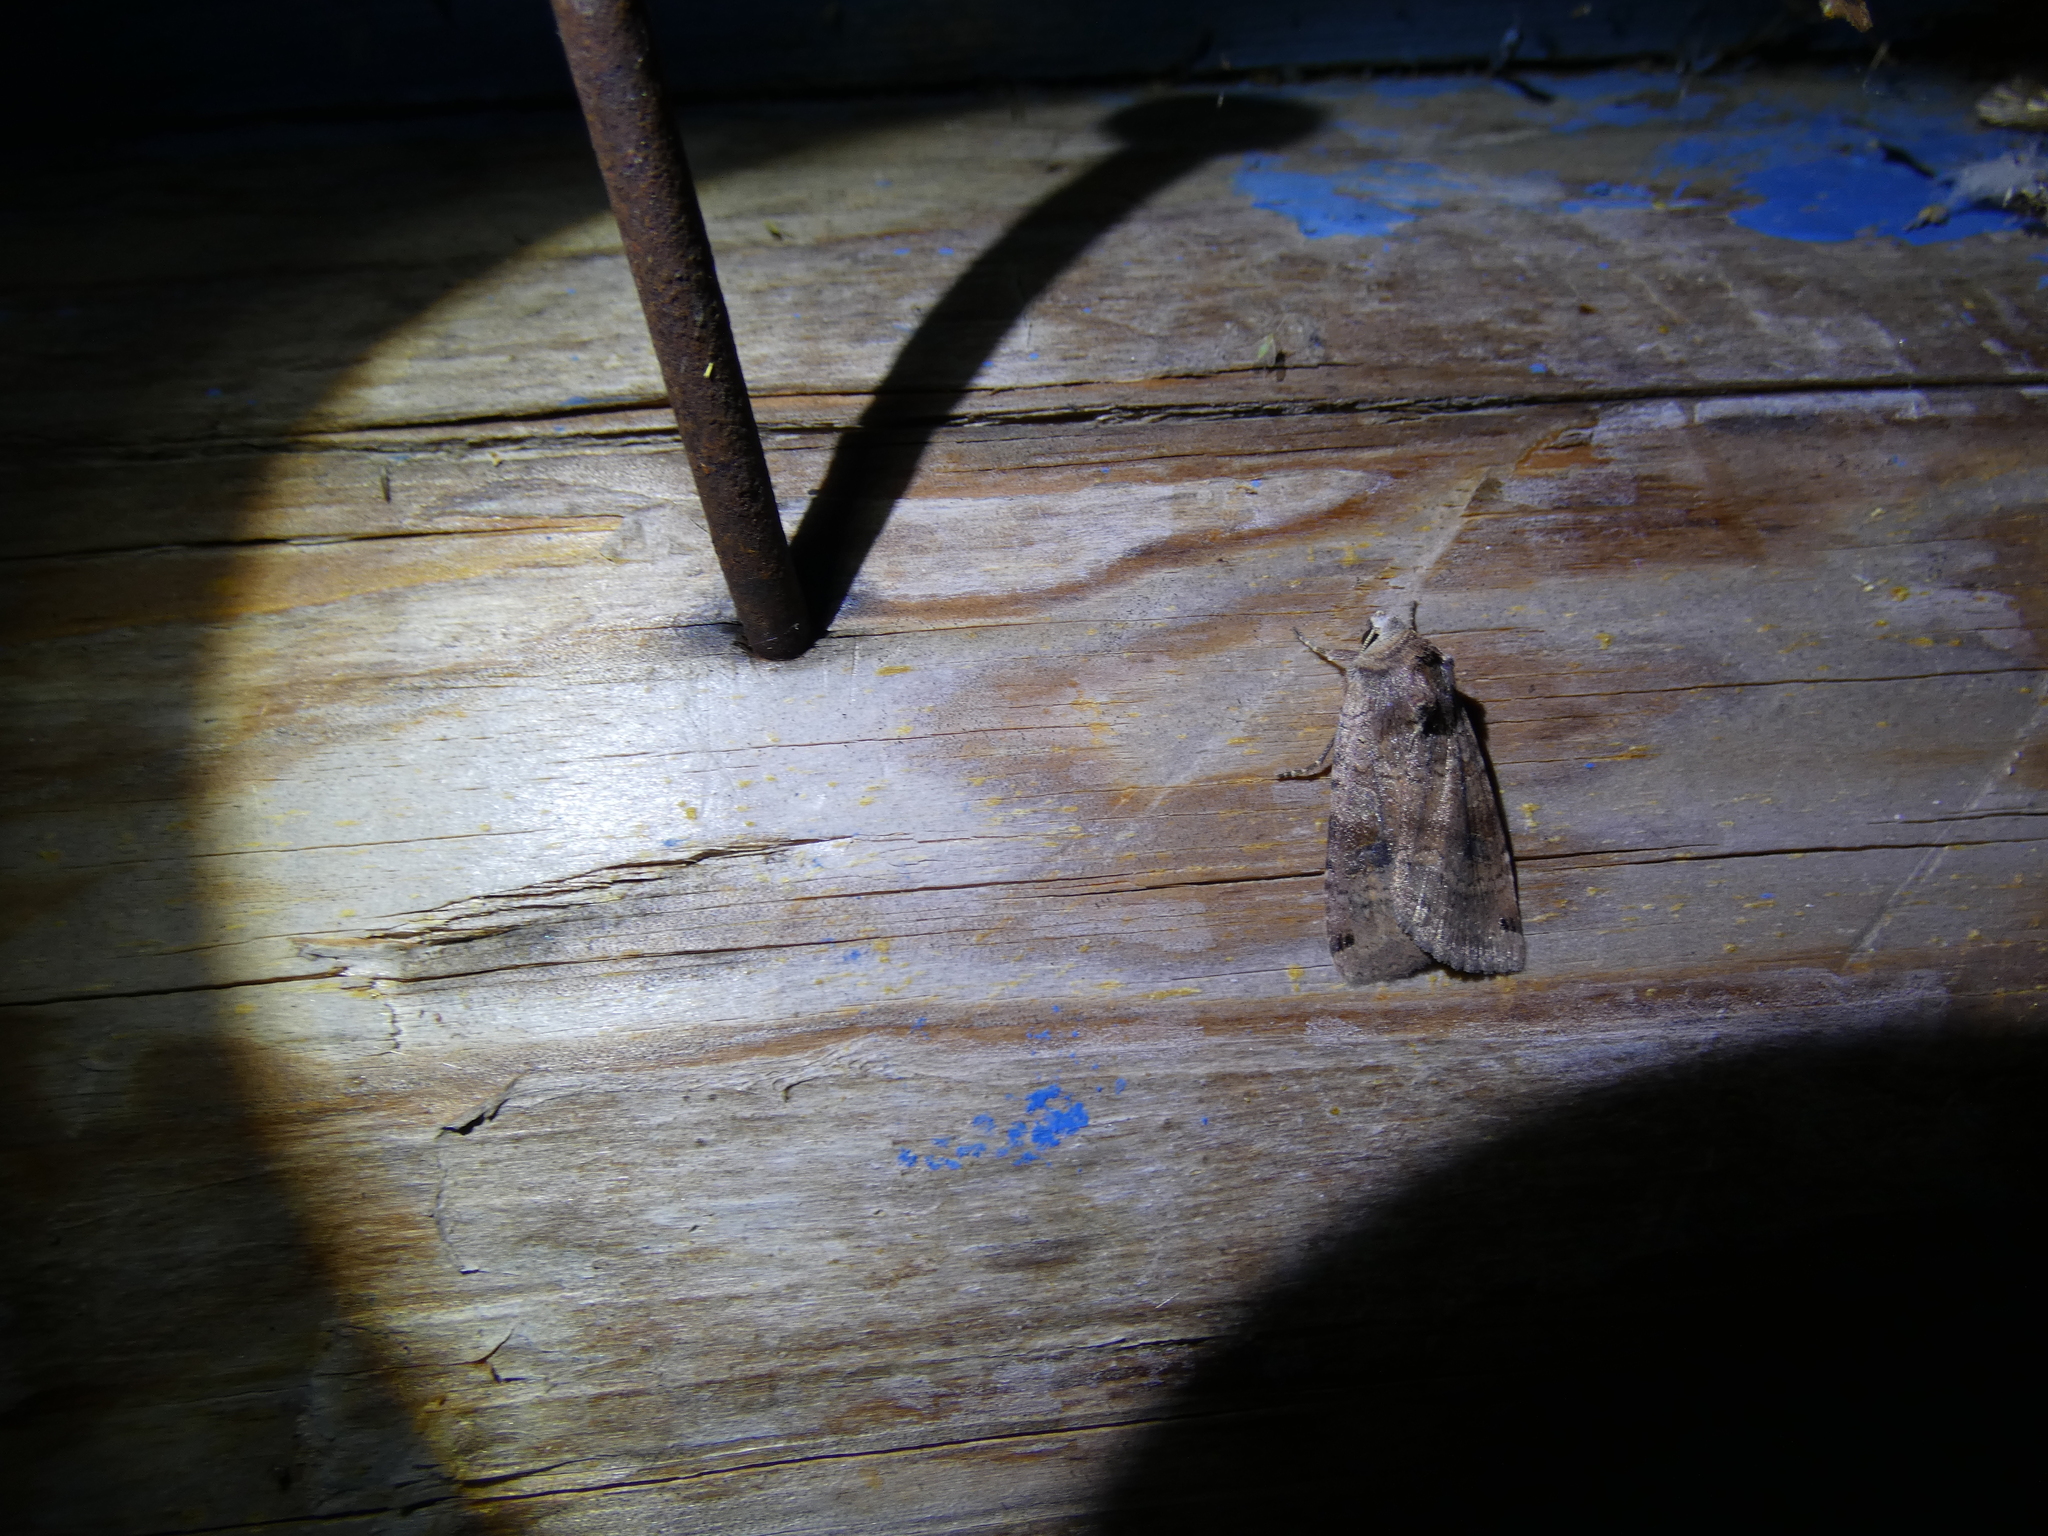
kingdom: Animalia
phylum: Arthropoda
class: Insecta
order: Lepidoptera
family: Noctuidae
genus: Xestia
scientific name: Xestia baja
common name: Dotted clay
